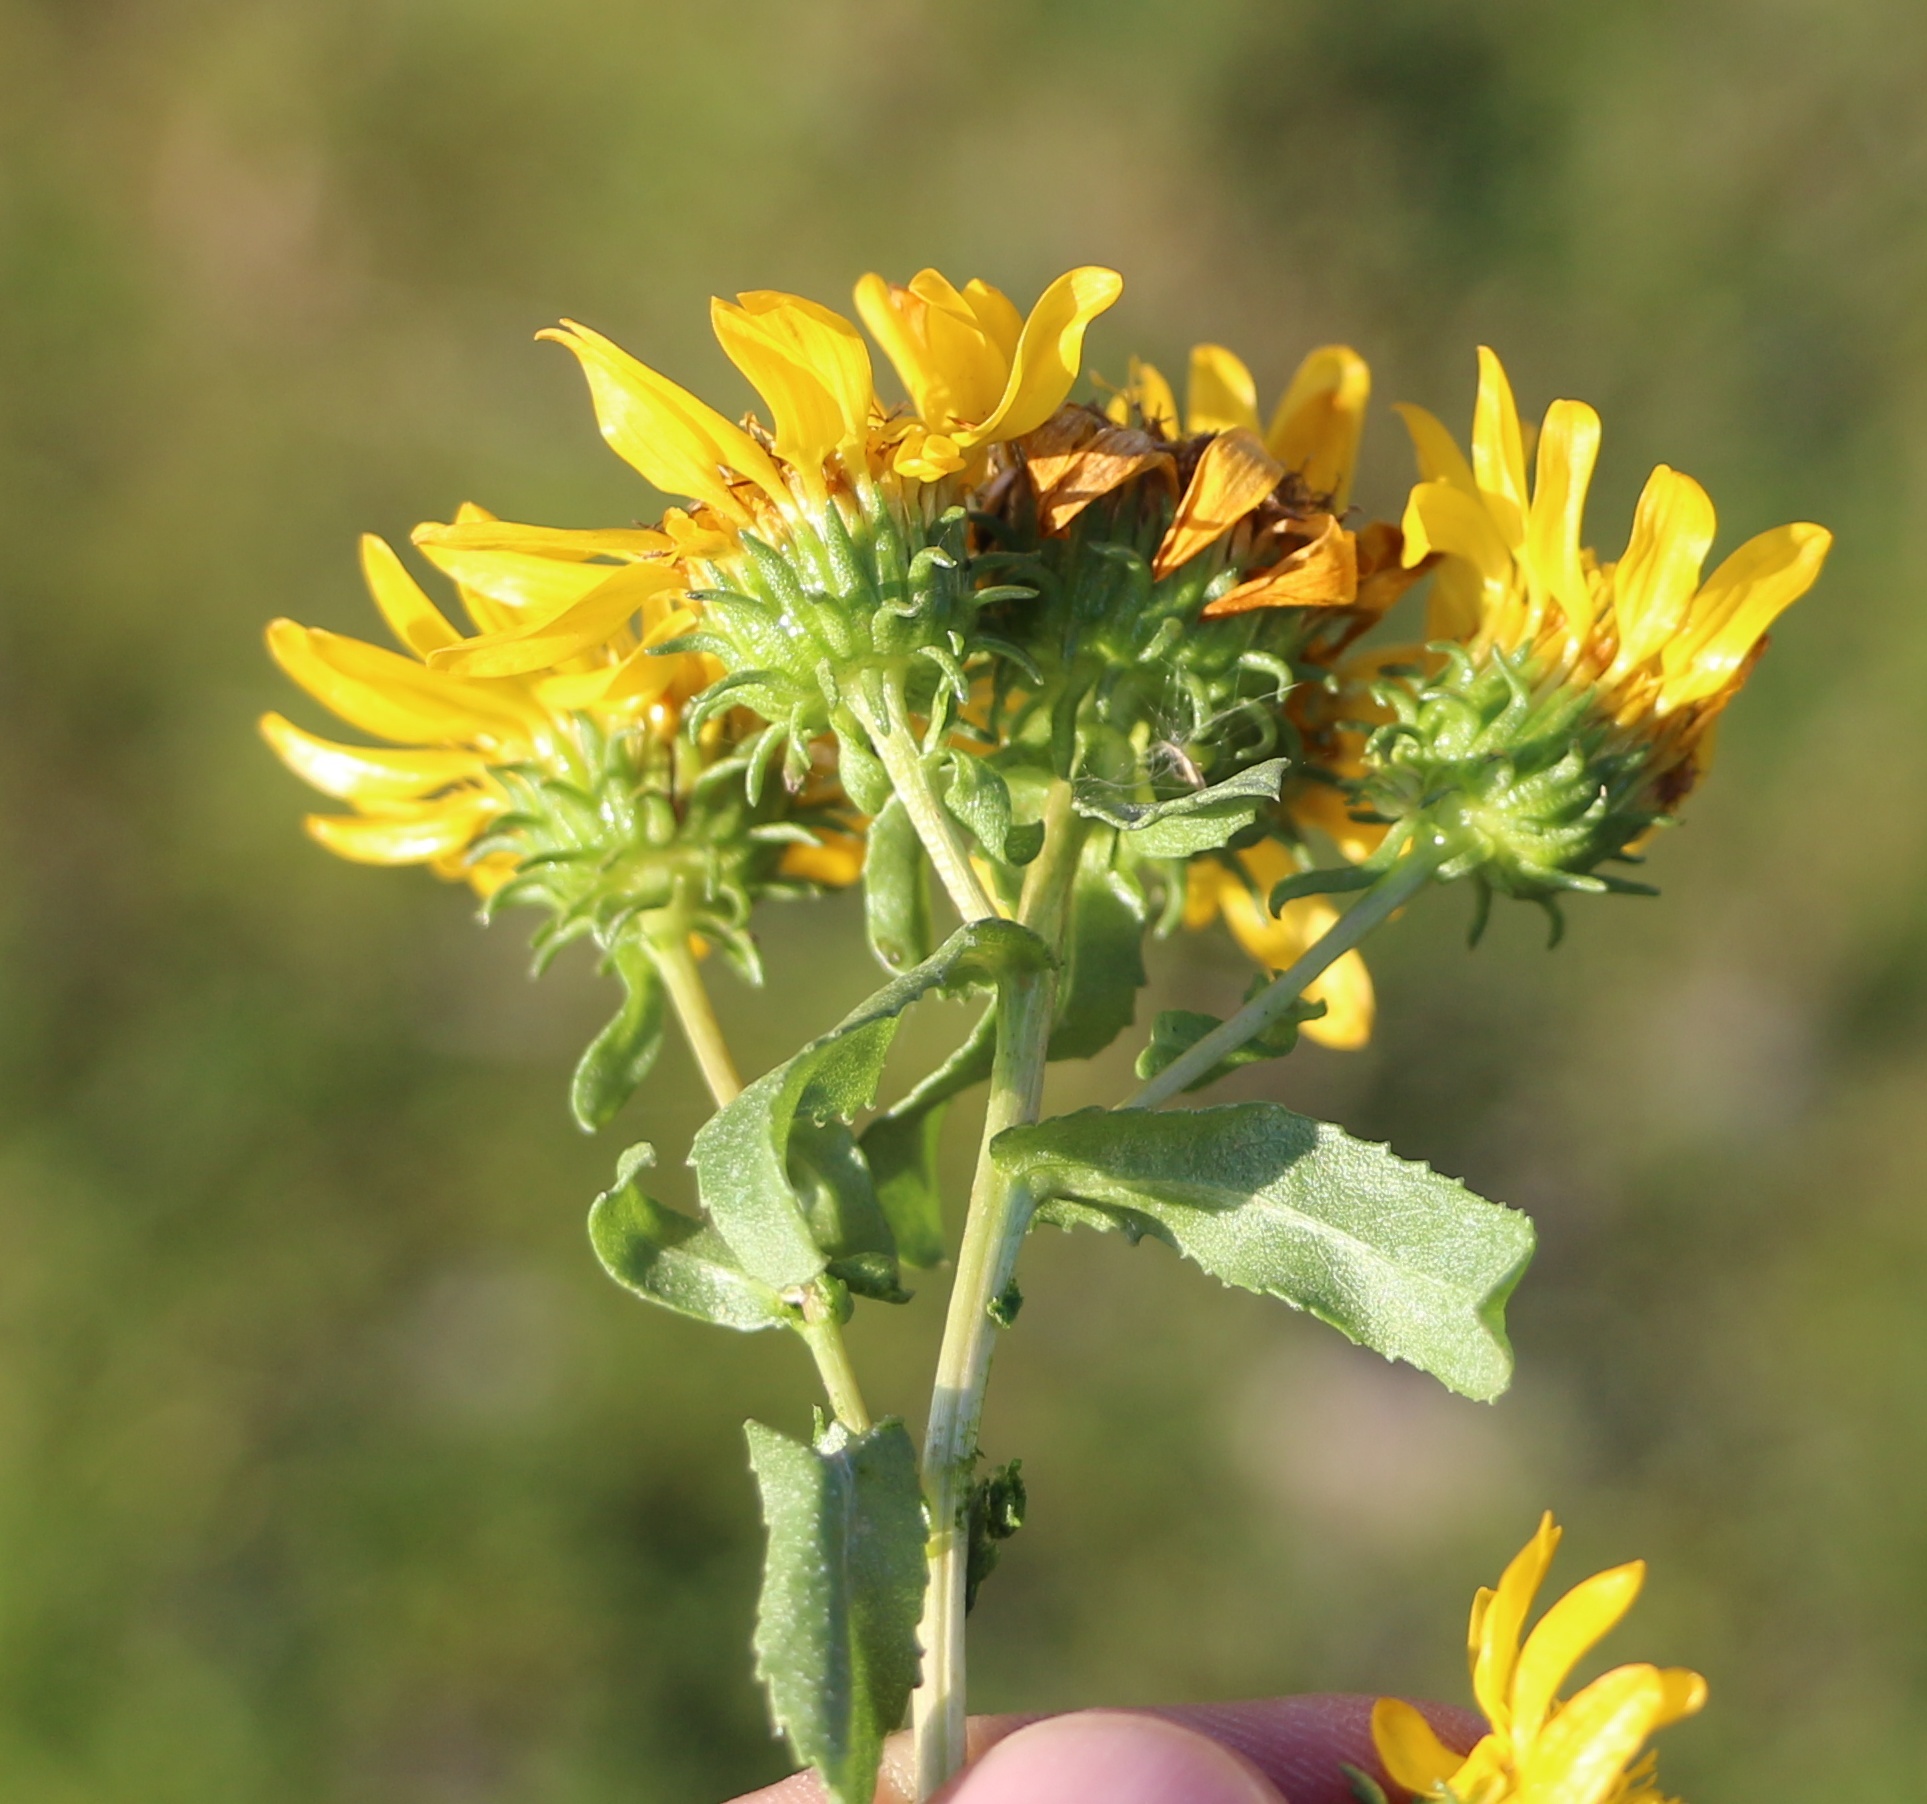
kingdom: Plantae
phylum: Tracheophyta
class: Magnoliopsida
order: Asterales
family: Asteraceae
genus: Grindelia
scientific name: Grindelia squarrosa
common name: Curly-cup gumweed
